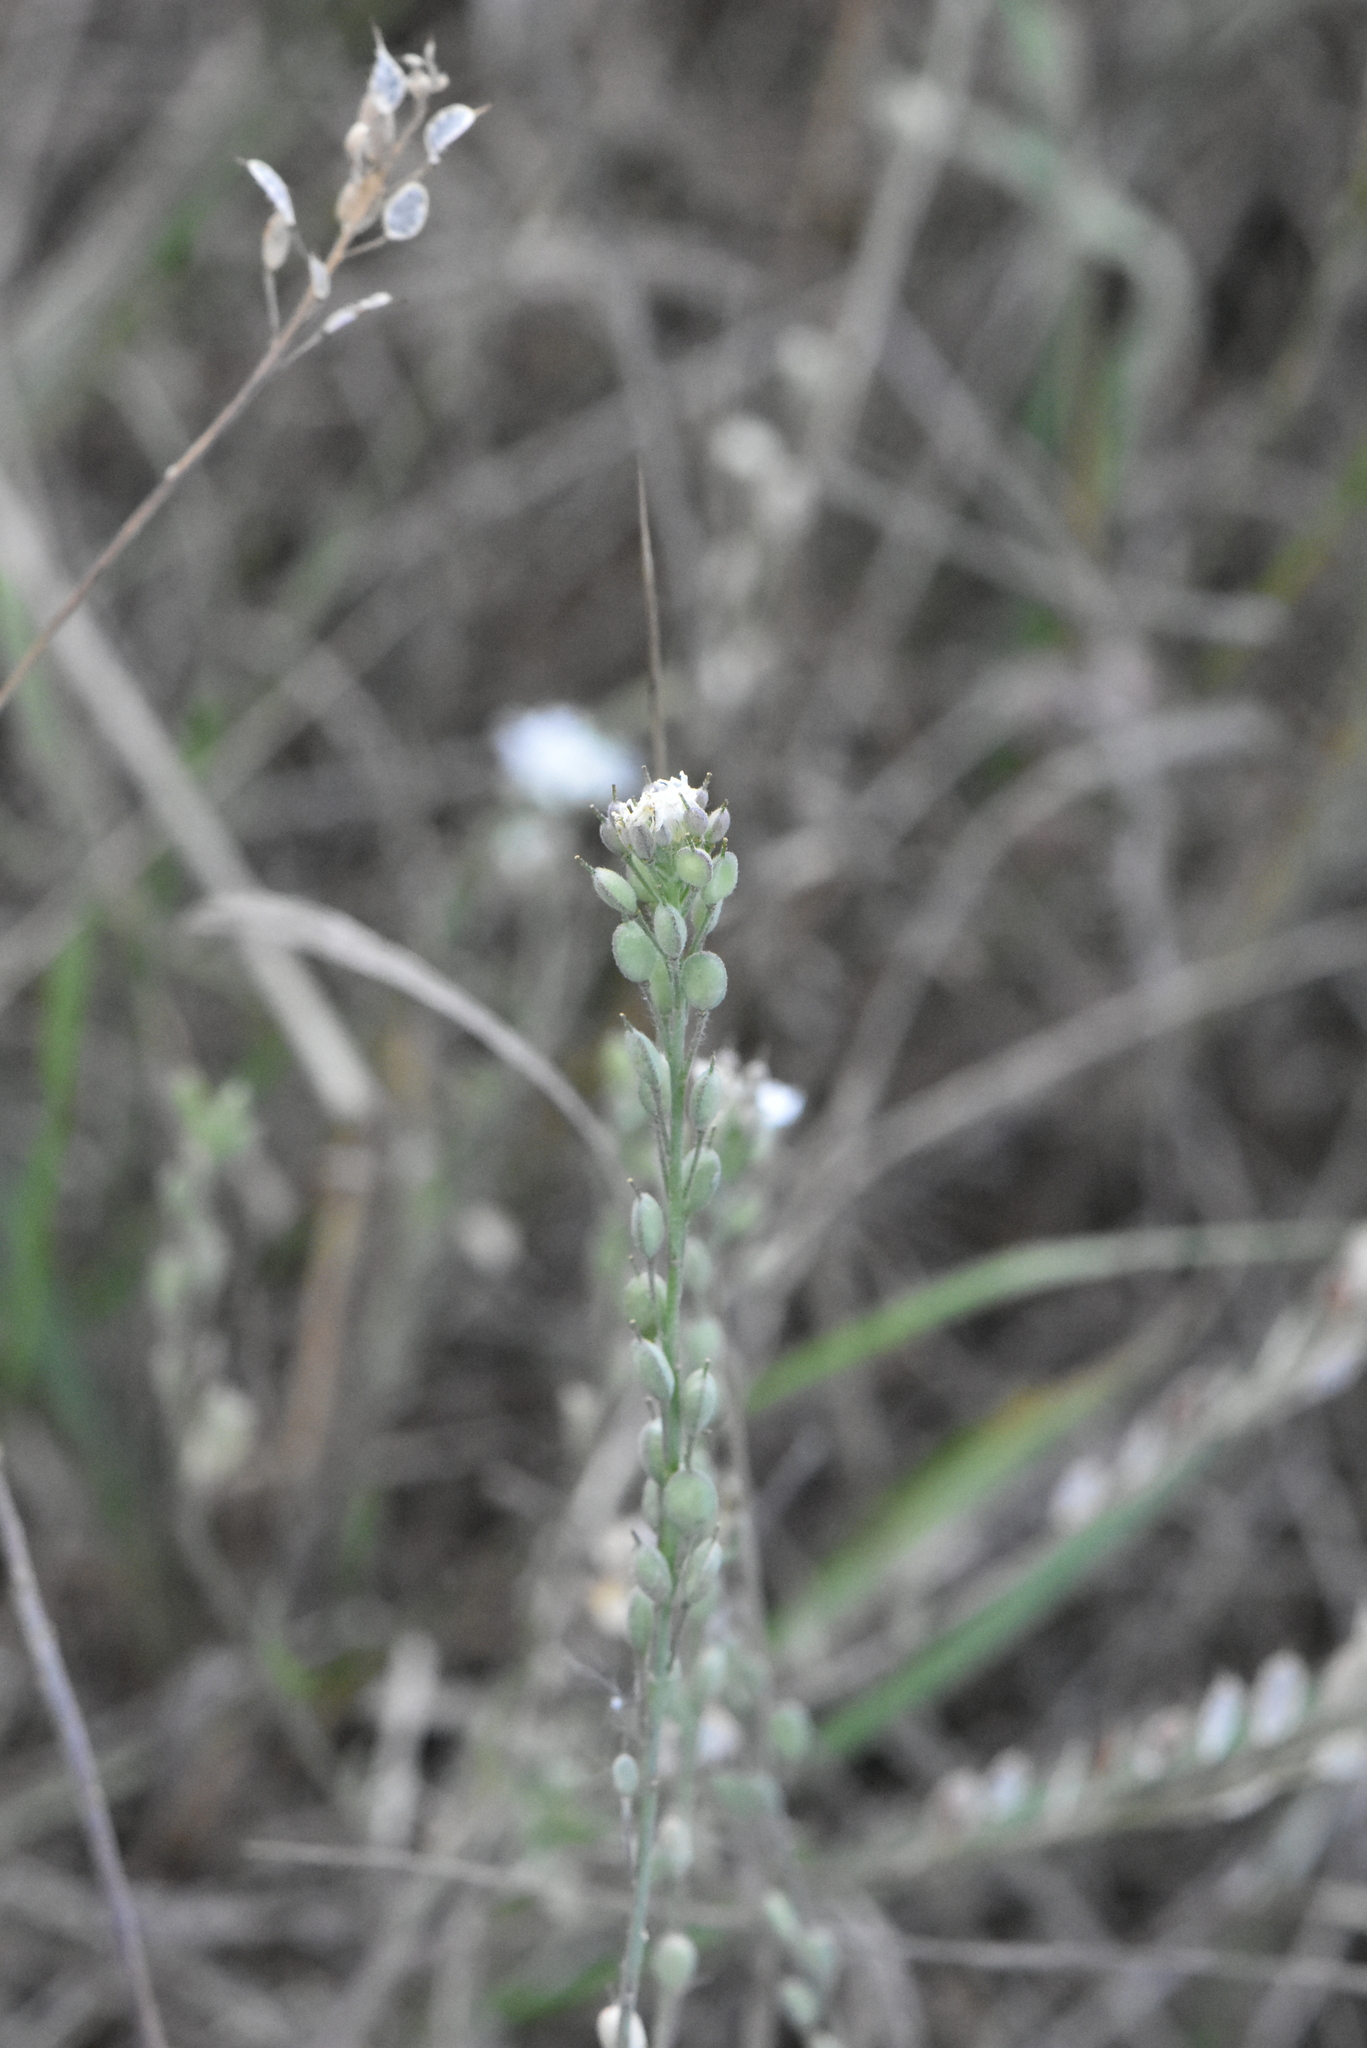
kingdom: Plantae
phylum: Tracheophyta
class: Magnoliopsida
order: Brassicales
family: Brassicaceae
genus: Berteroa
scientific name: Berteroa incana
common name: Hoary alison
